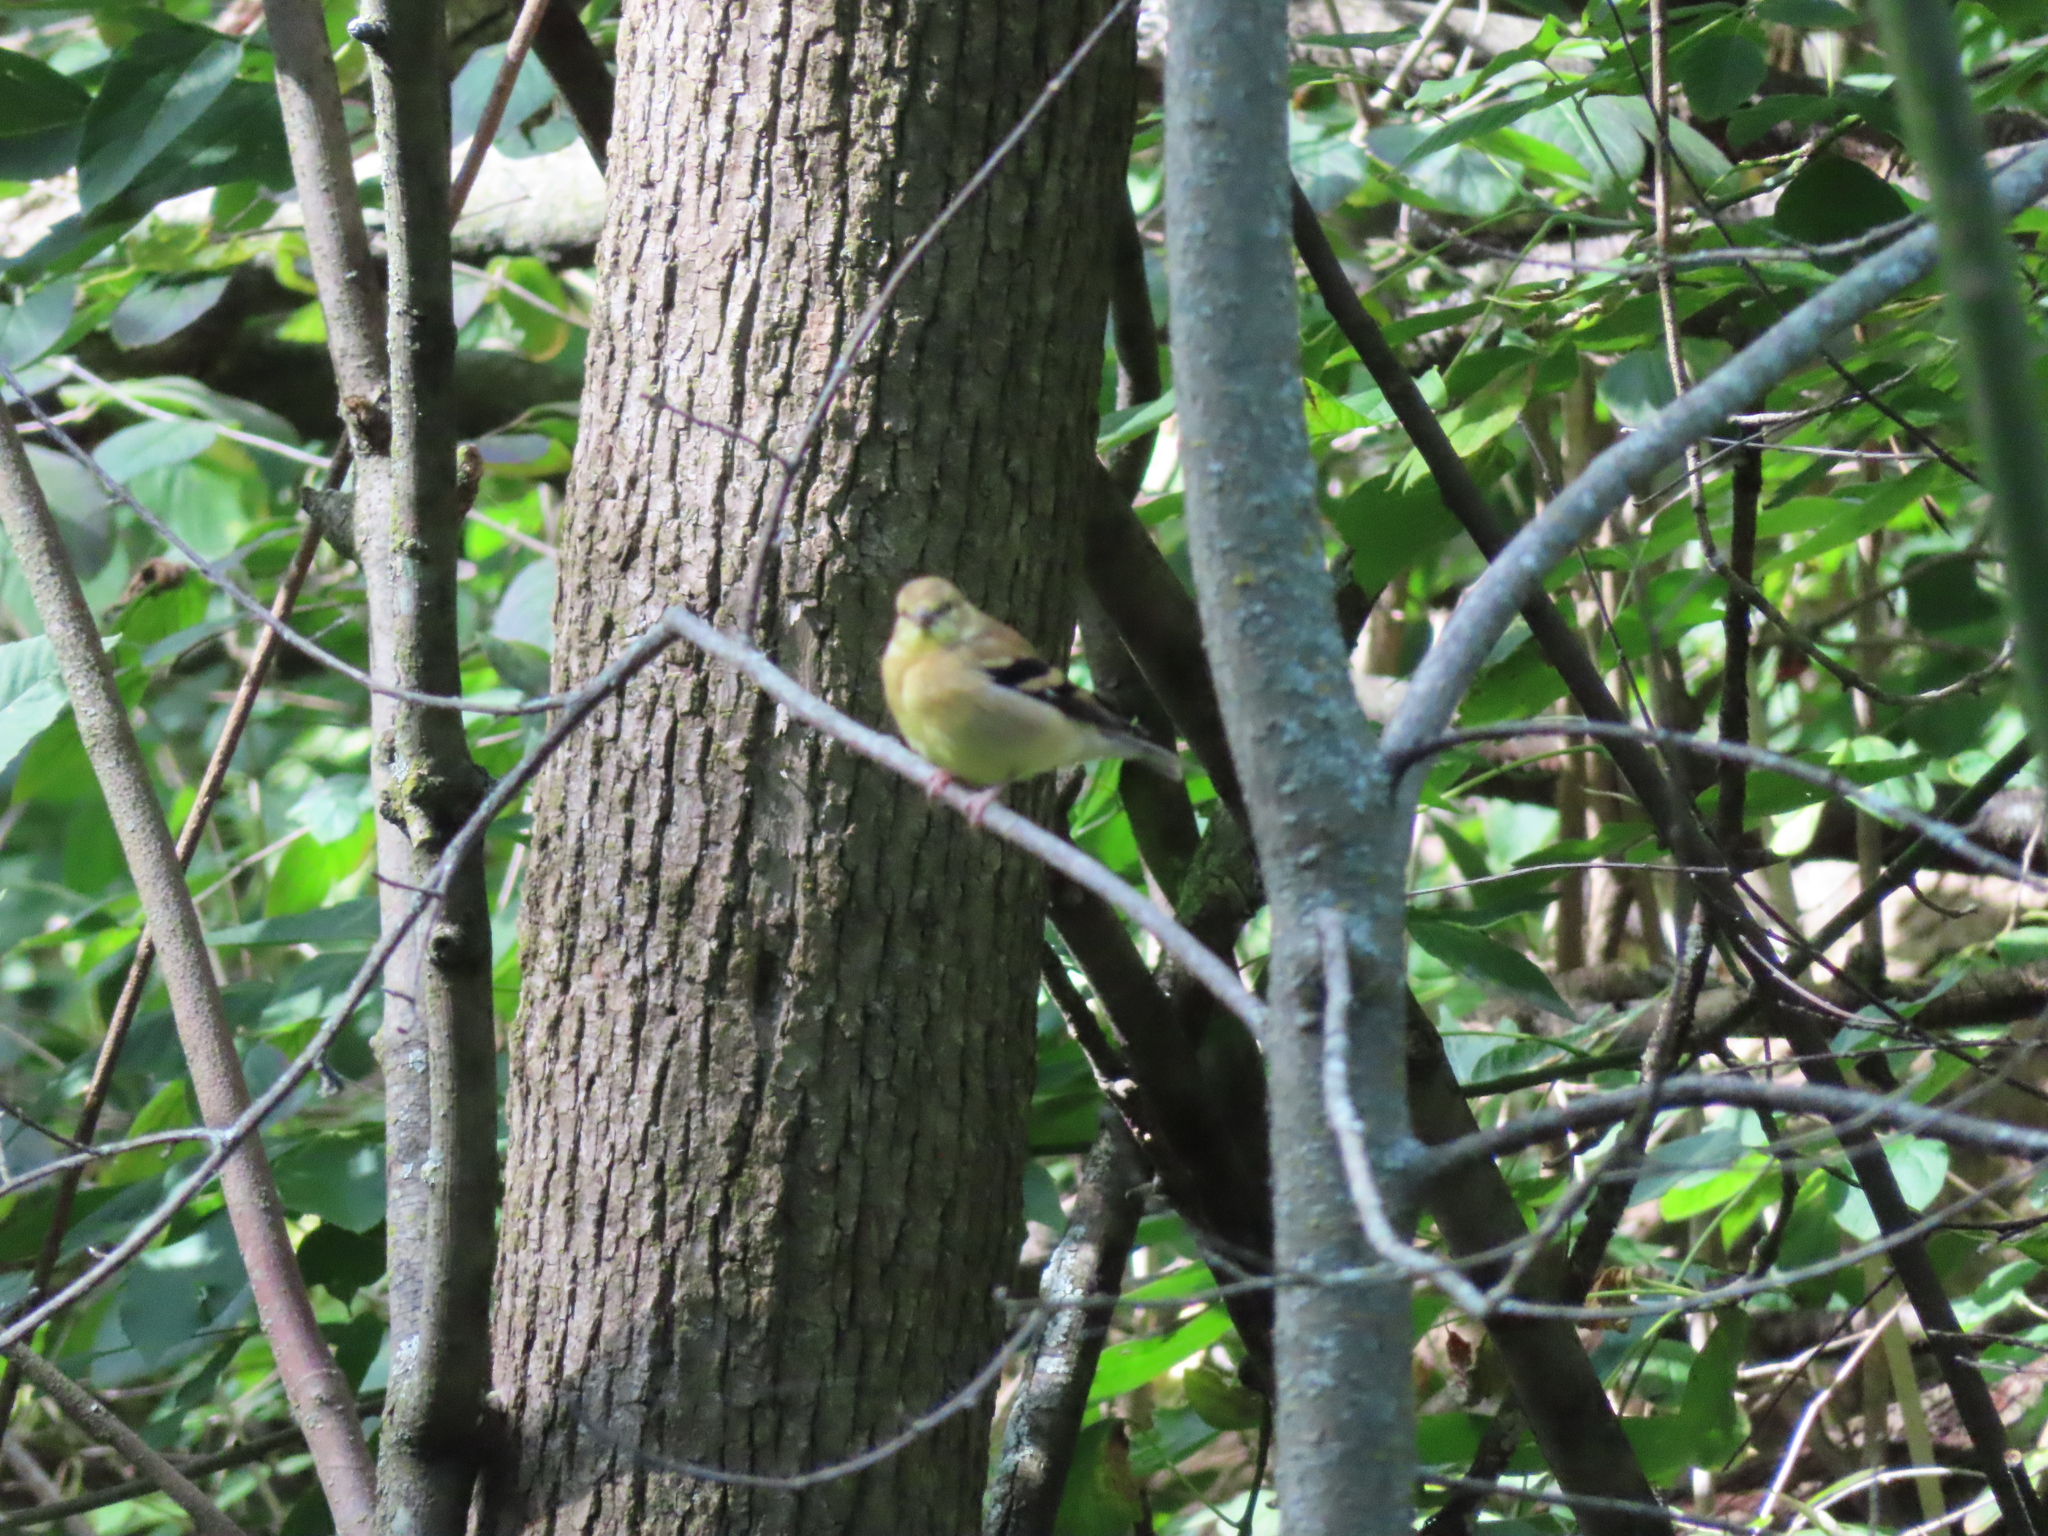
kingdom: Animalia
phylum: Chordata
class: Aves
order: Passeriformes
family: Fringillidae
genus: Spinus
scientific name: Spinus tristis
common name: American goldfinch
